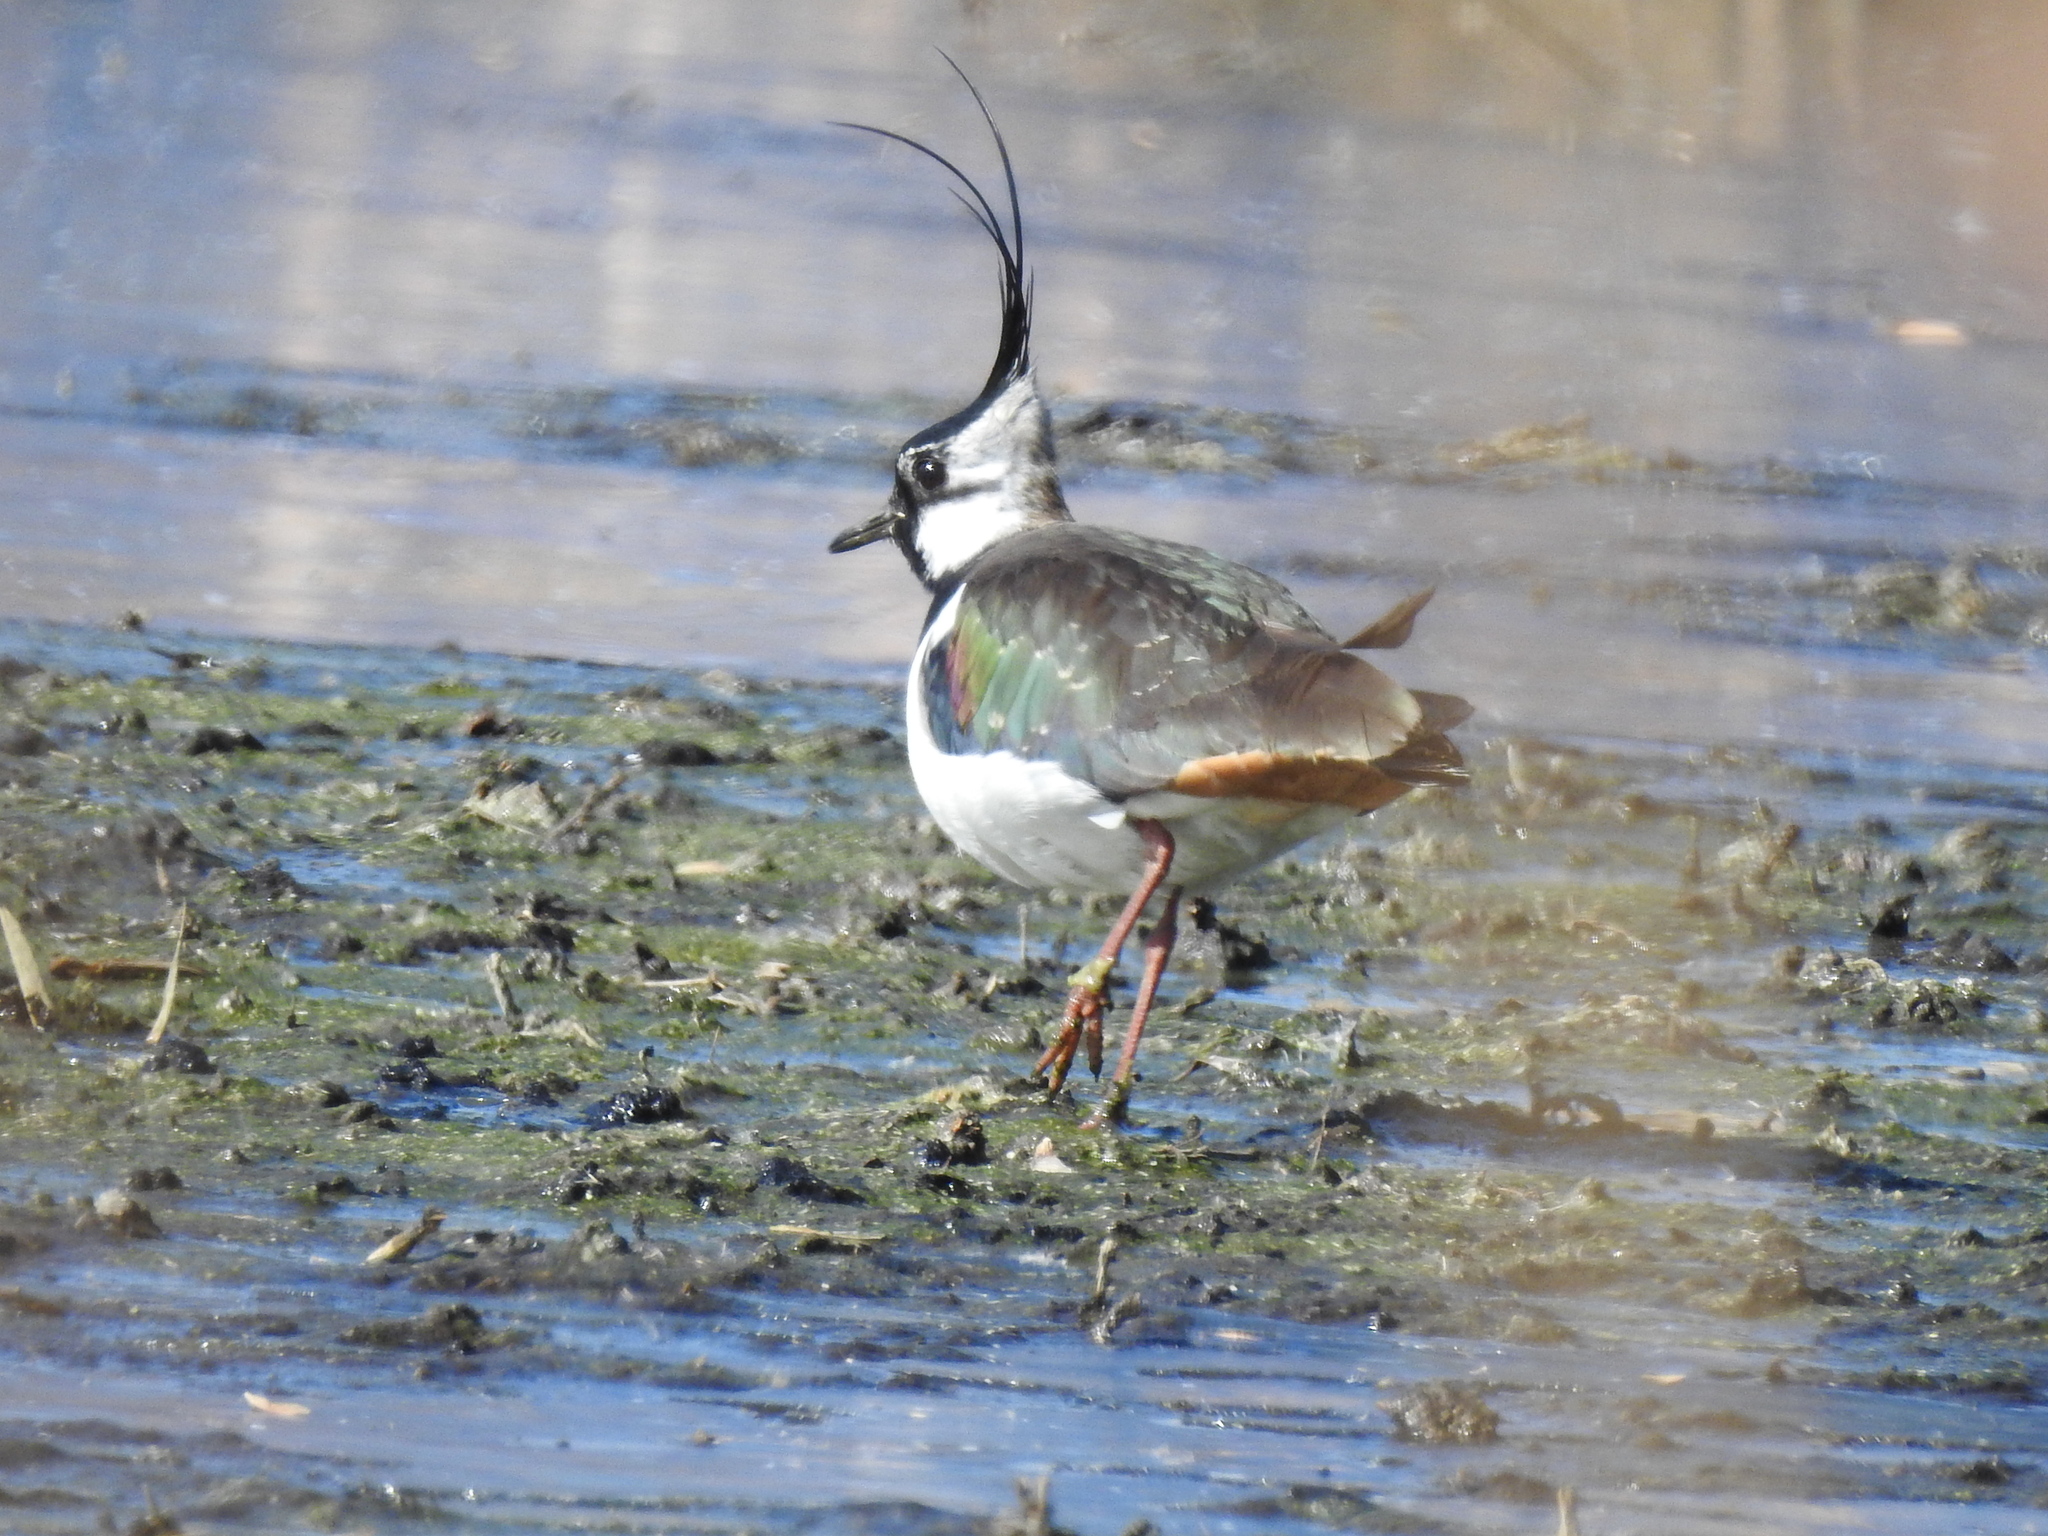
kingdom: Animalia
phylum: Chordata
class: Aves
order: Charadriiformes
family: Charadriidae
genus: Vanellus
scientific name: Vanellus vanellus
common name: Northern lapwing
